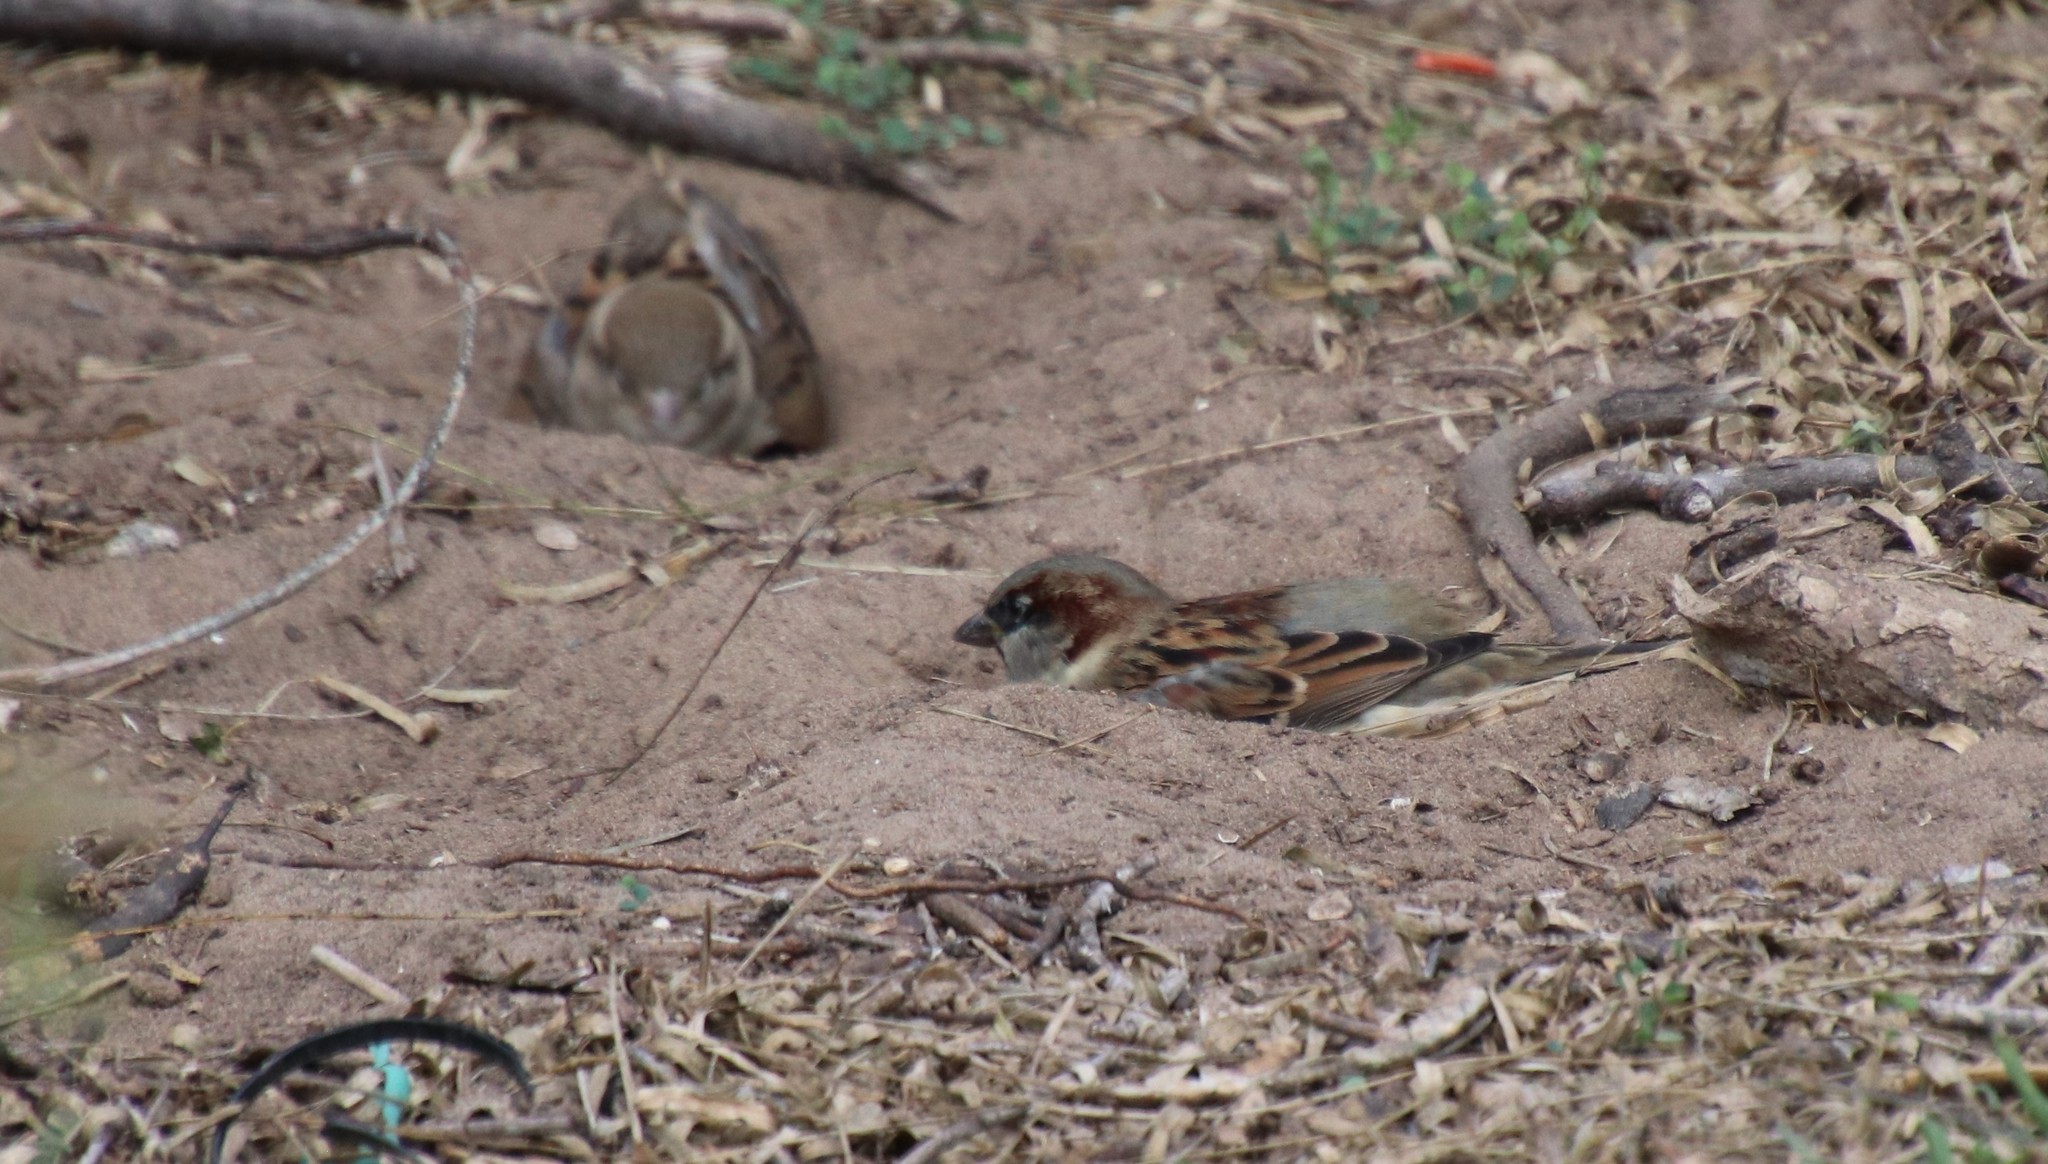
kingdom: Animalia
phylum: Chordata
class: Aves
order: Passeriformes
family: Passeridae
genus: Passer
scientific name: Passer domesticus
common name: House sparrow
